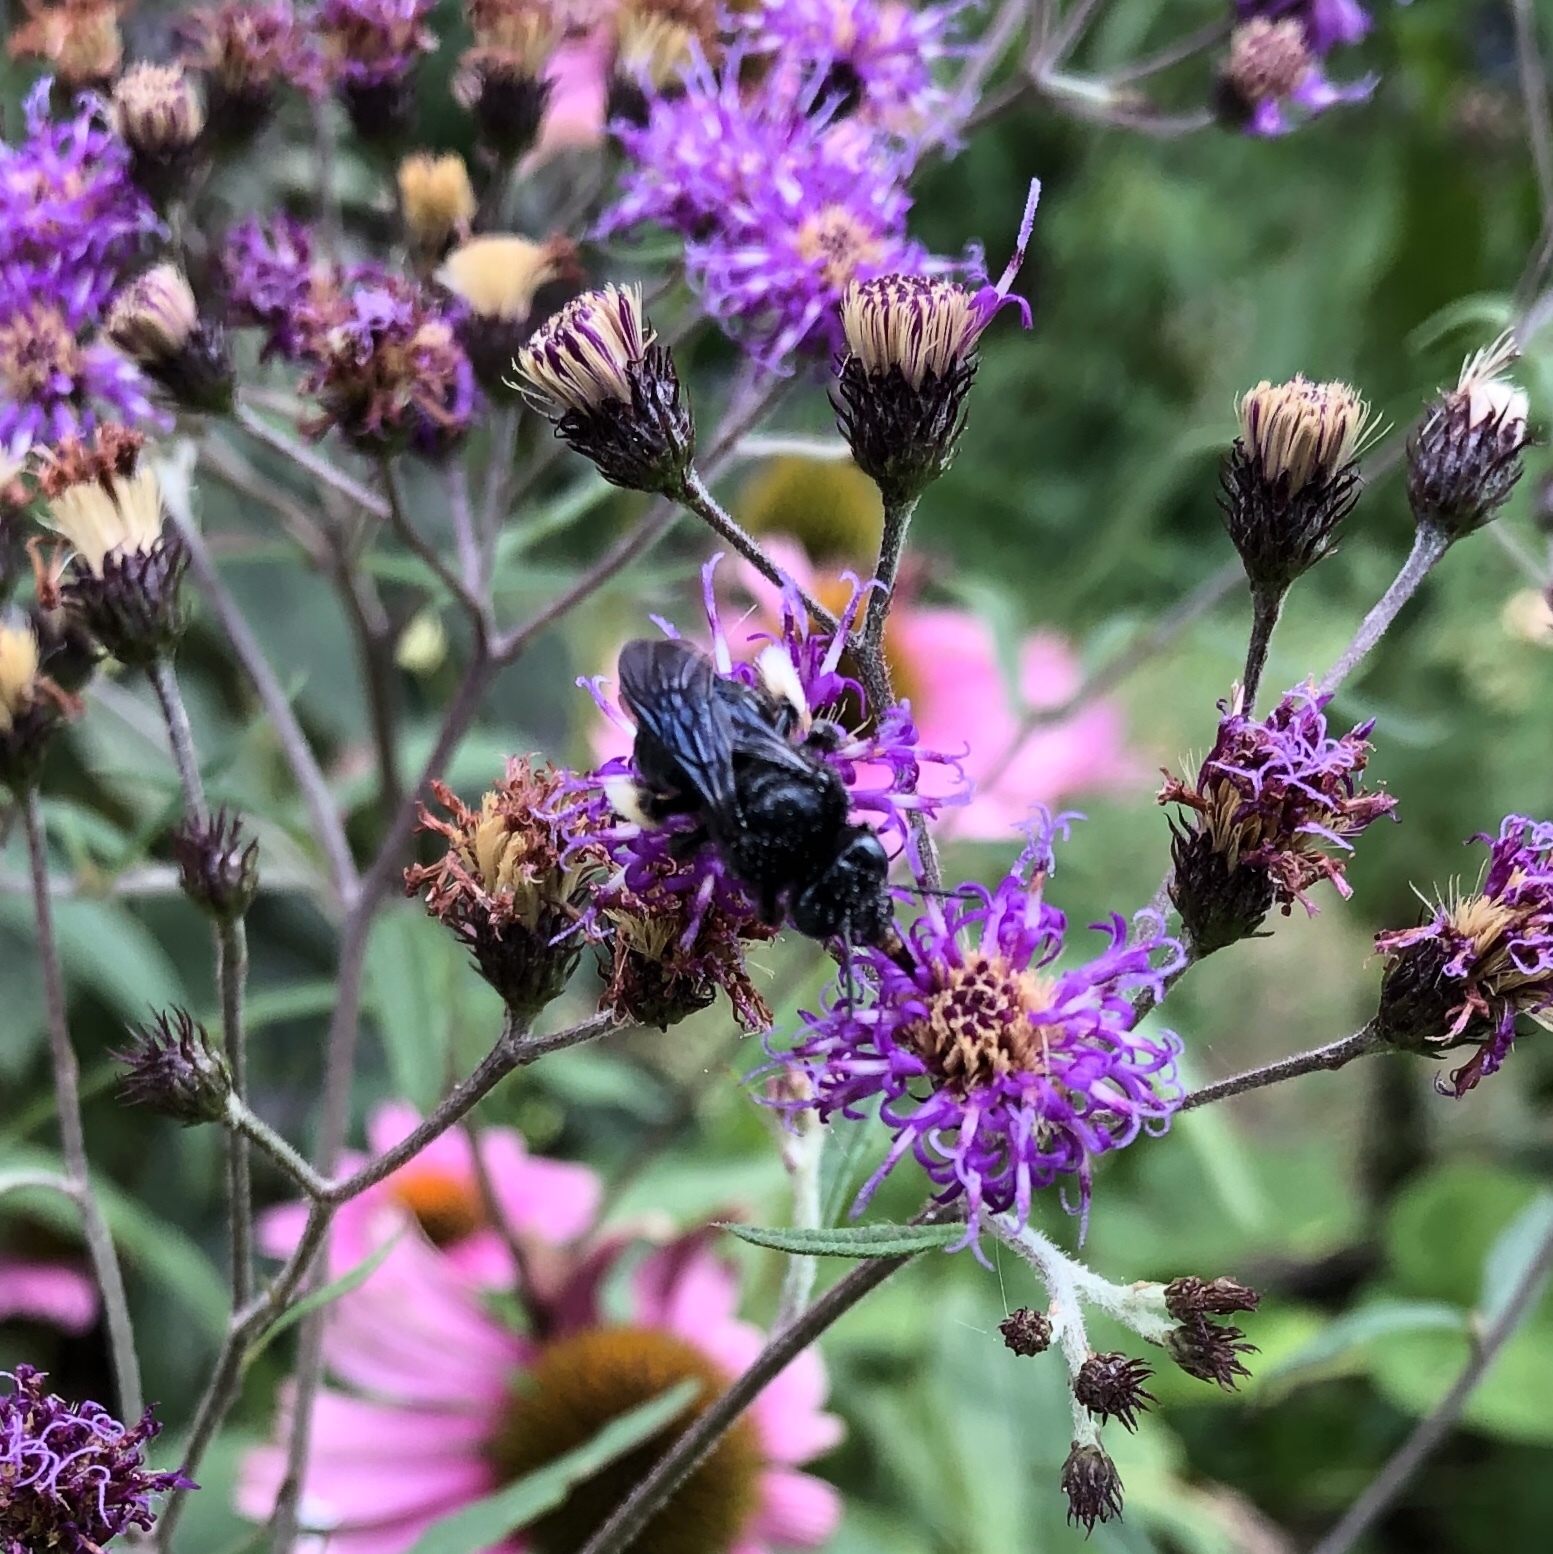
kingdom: Animalia
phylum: Arthropoda
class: Insecta
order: Hymenoptera
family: Apidae
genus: Melissodes
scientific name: Melissodes bimaculatus
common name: Two-spotted long-horned bee
